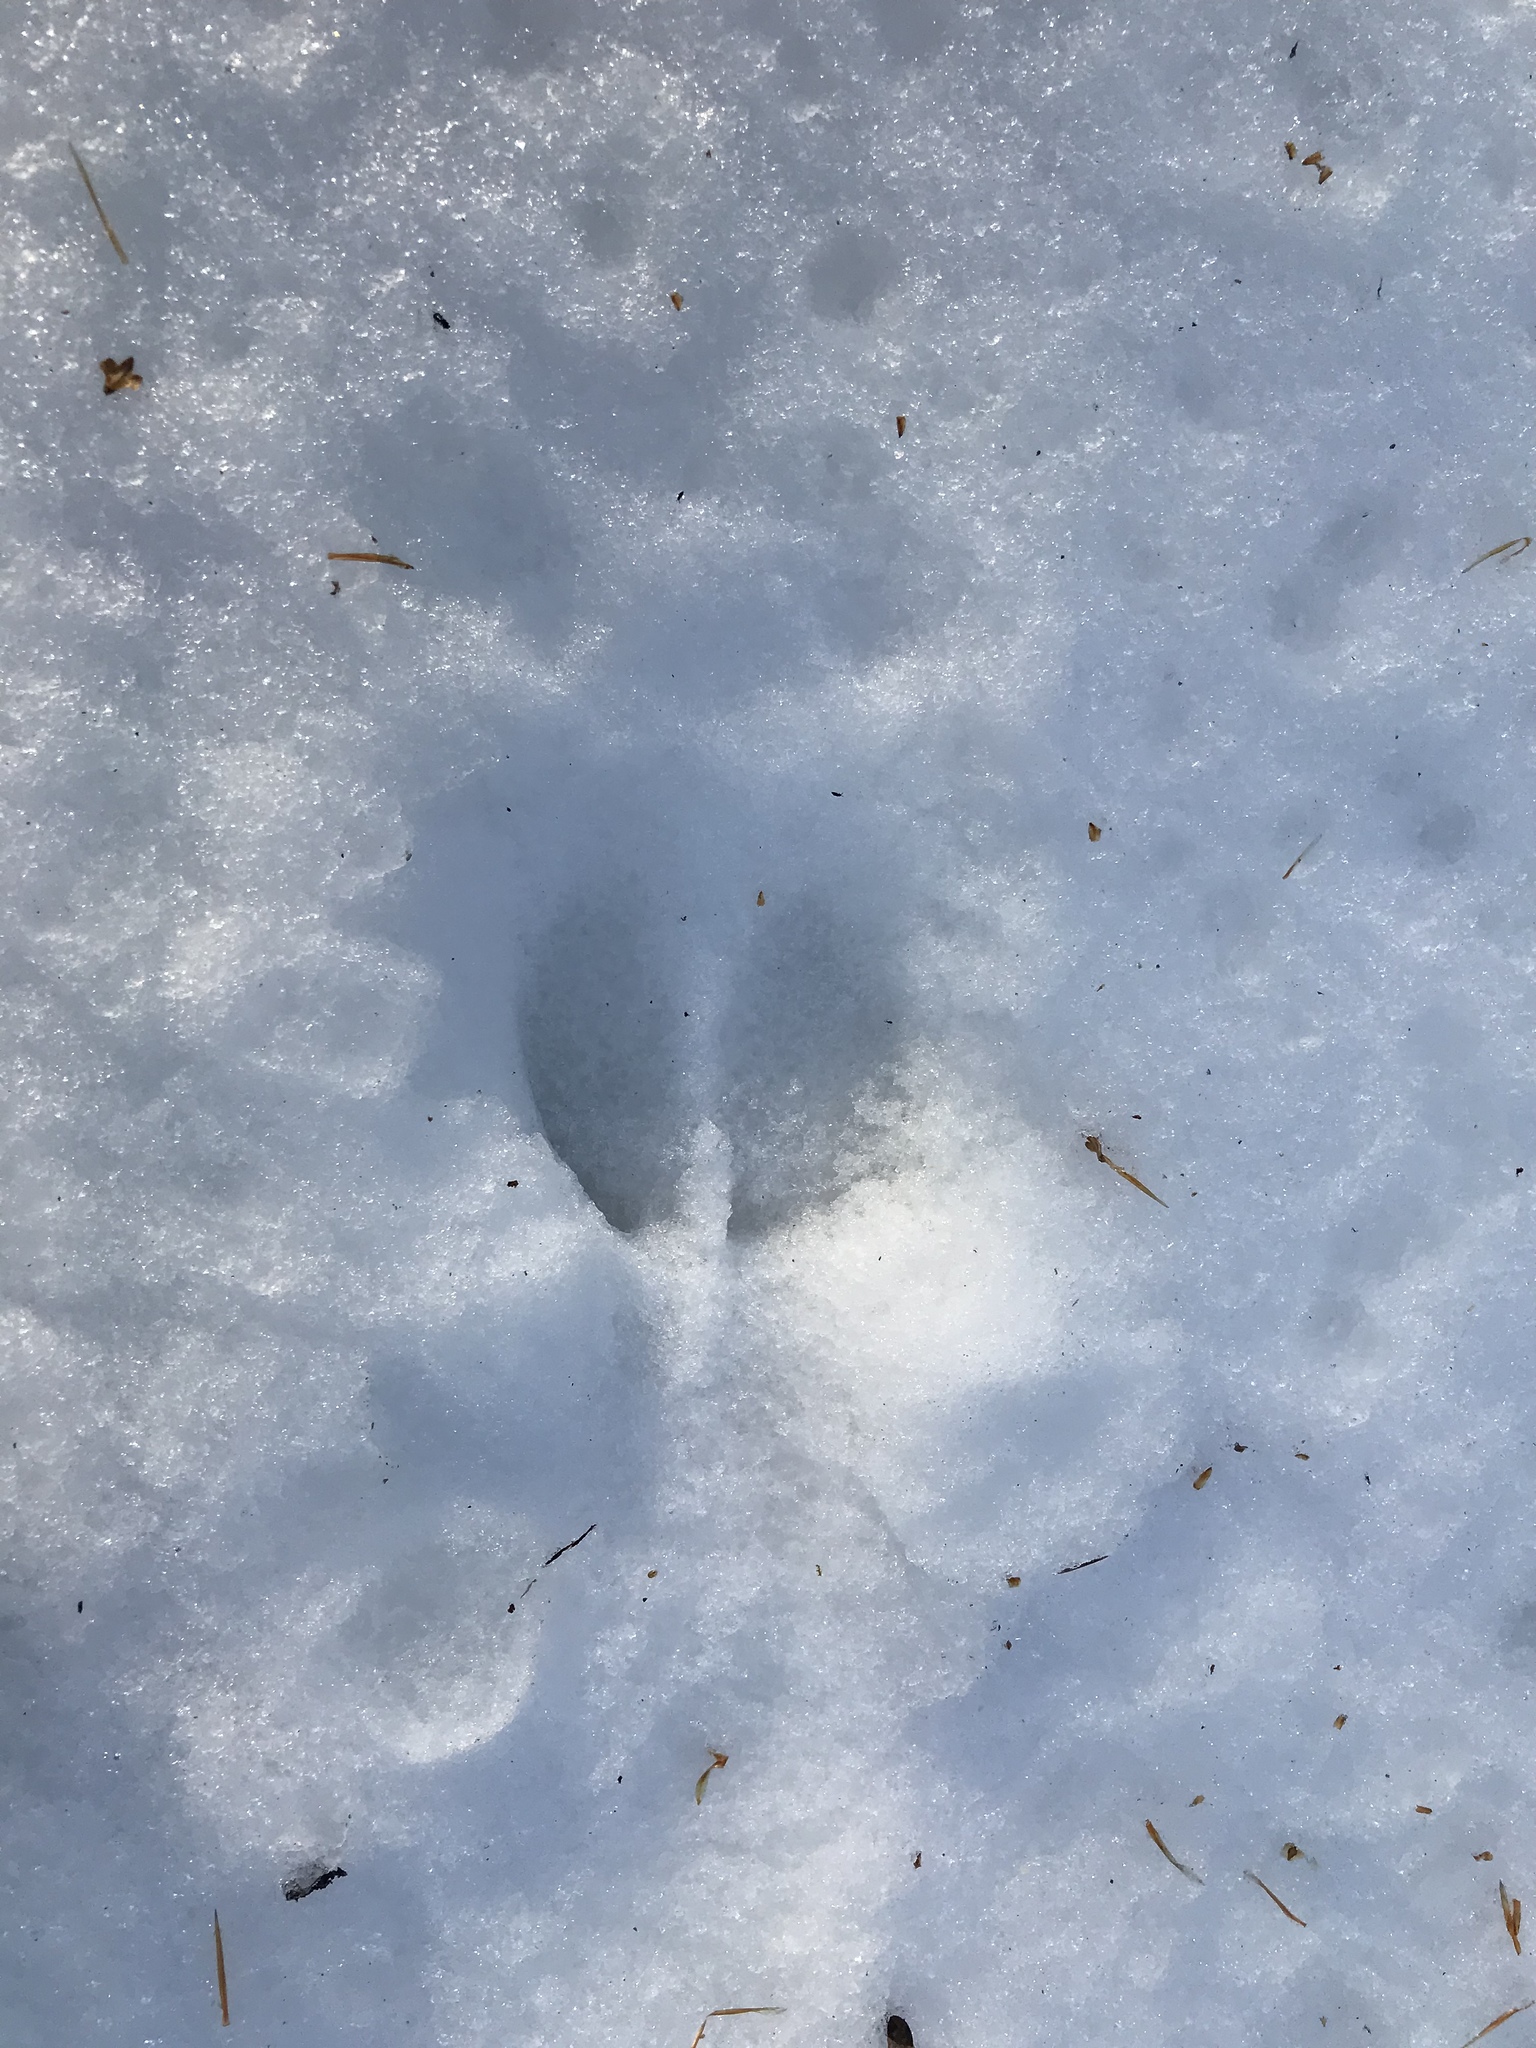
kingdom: Animalia
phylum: Chordata
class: Mammalia
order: Artiodactyla
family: Cervidae
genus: Odocoileus
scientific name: Odocoileus virginianus
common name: White-tailed deer
